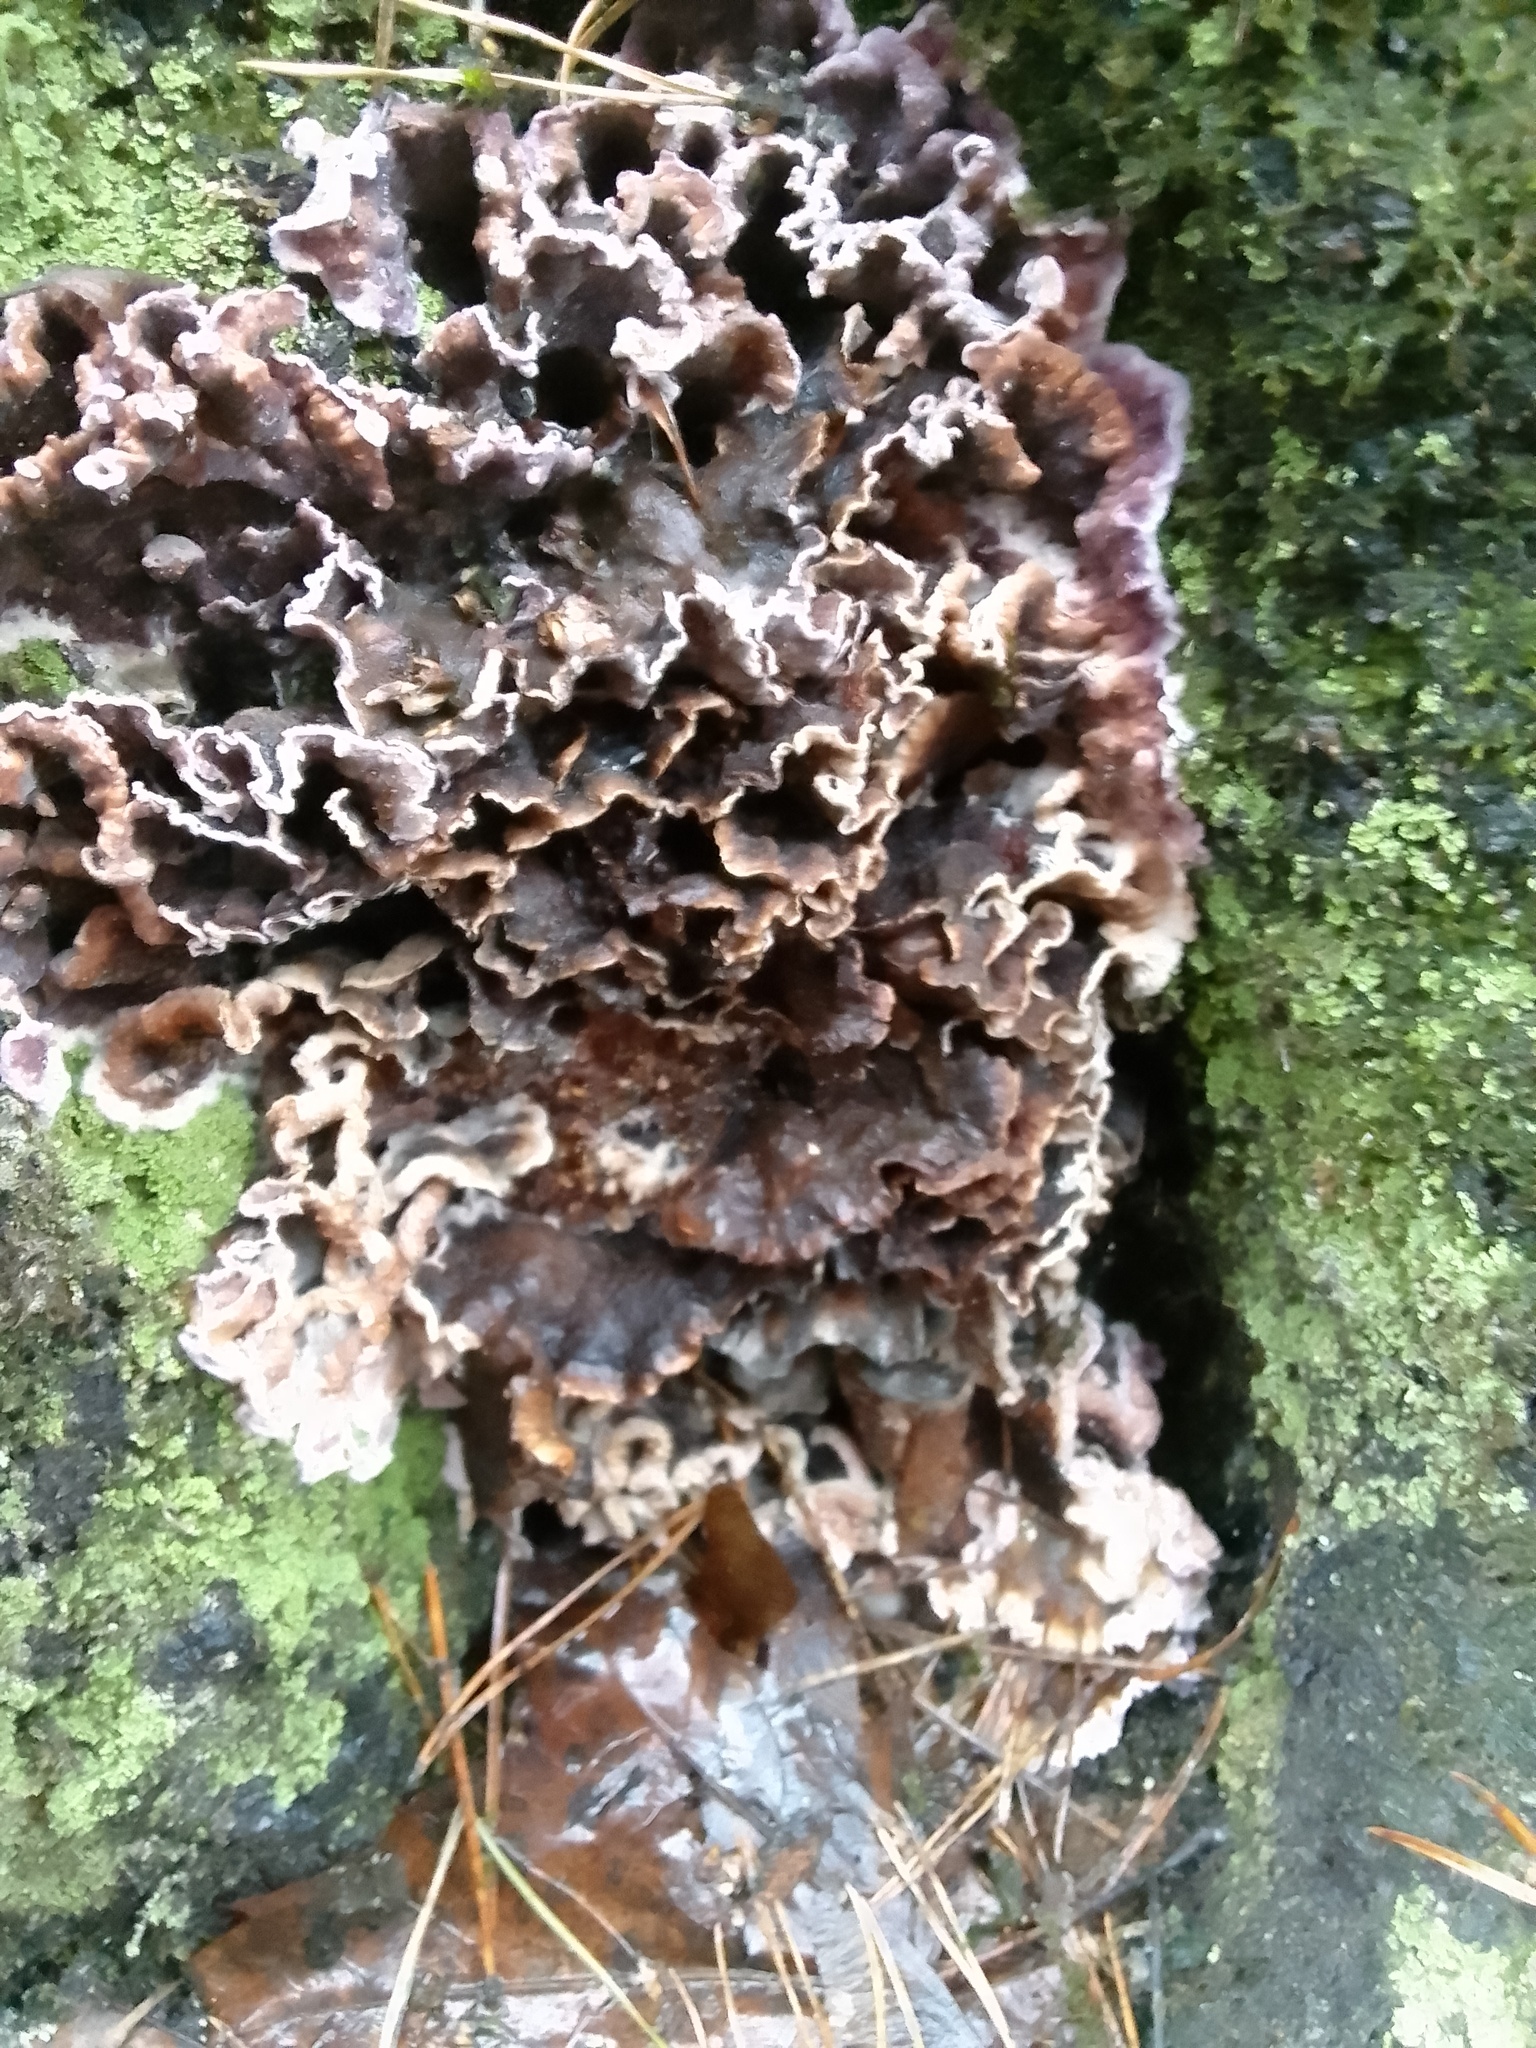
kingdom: Fungi
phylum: Basidiomycota
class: Agaricomycetes
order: Agaricales
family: Cyphellaceae
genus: Chondrostereum
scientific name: Chondrostereum purpureum
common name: Silver leaf disease
